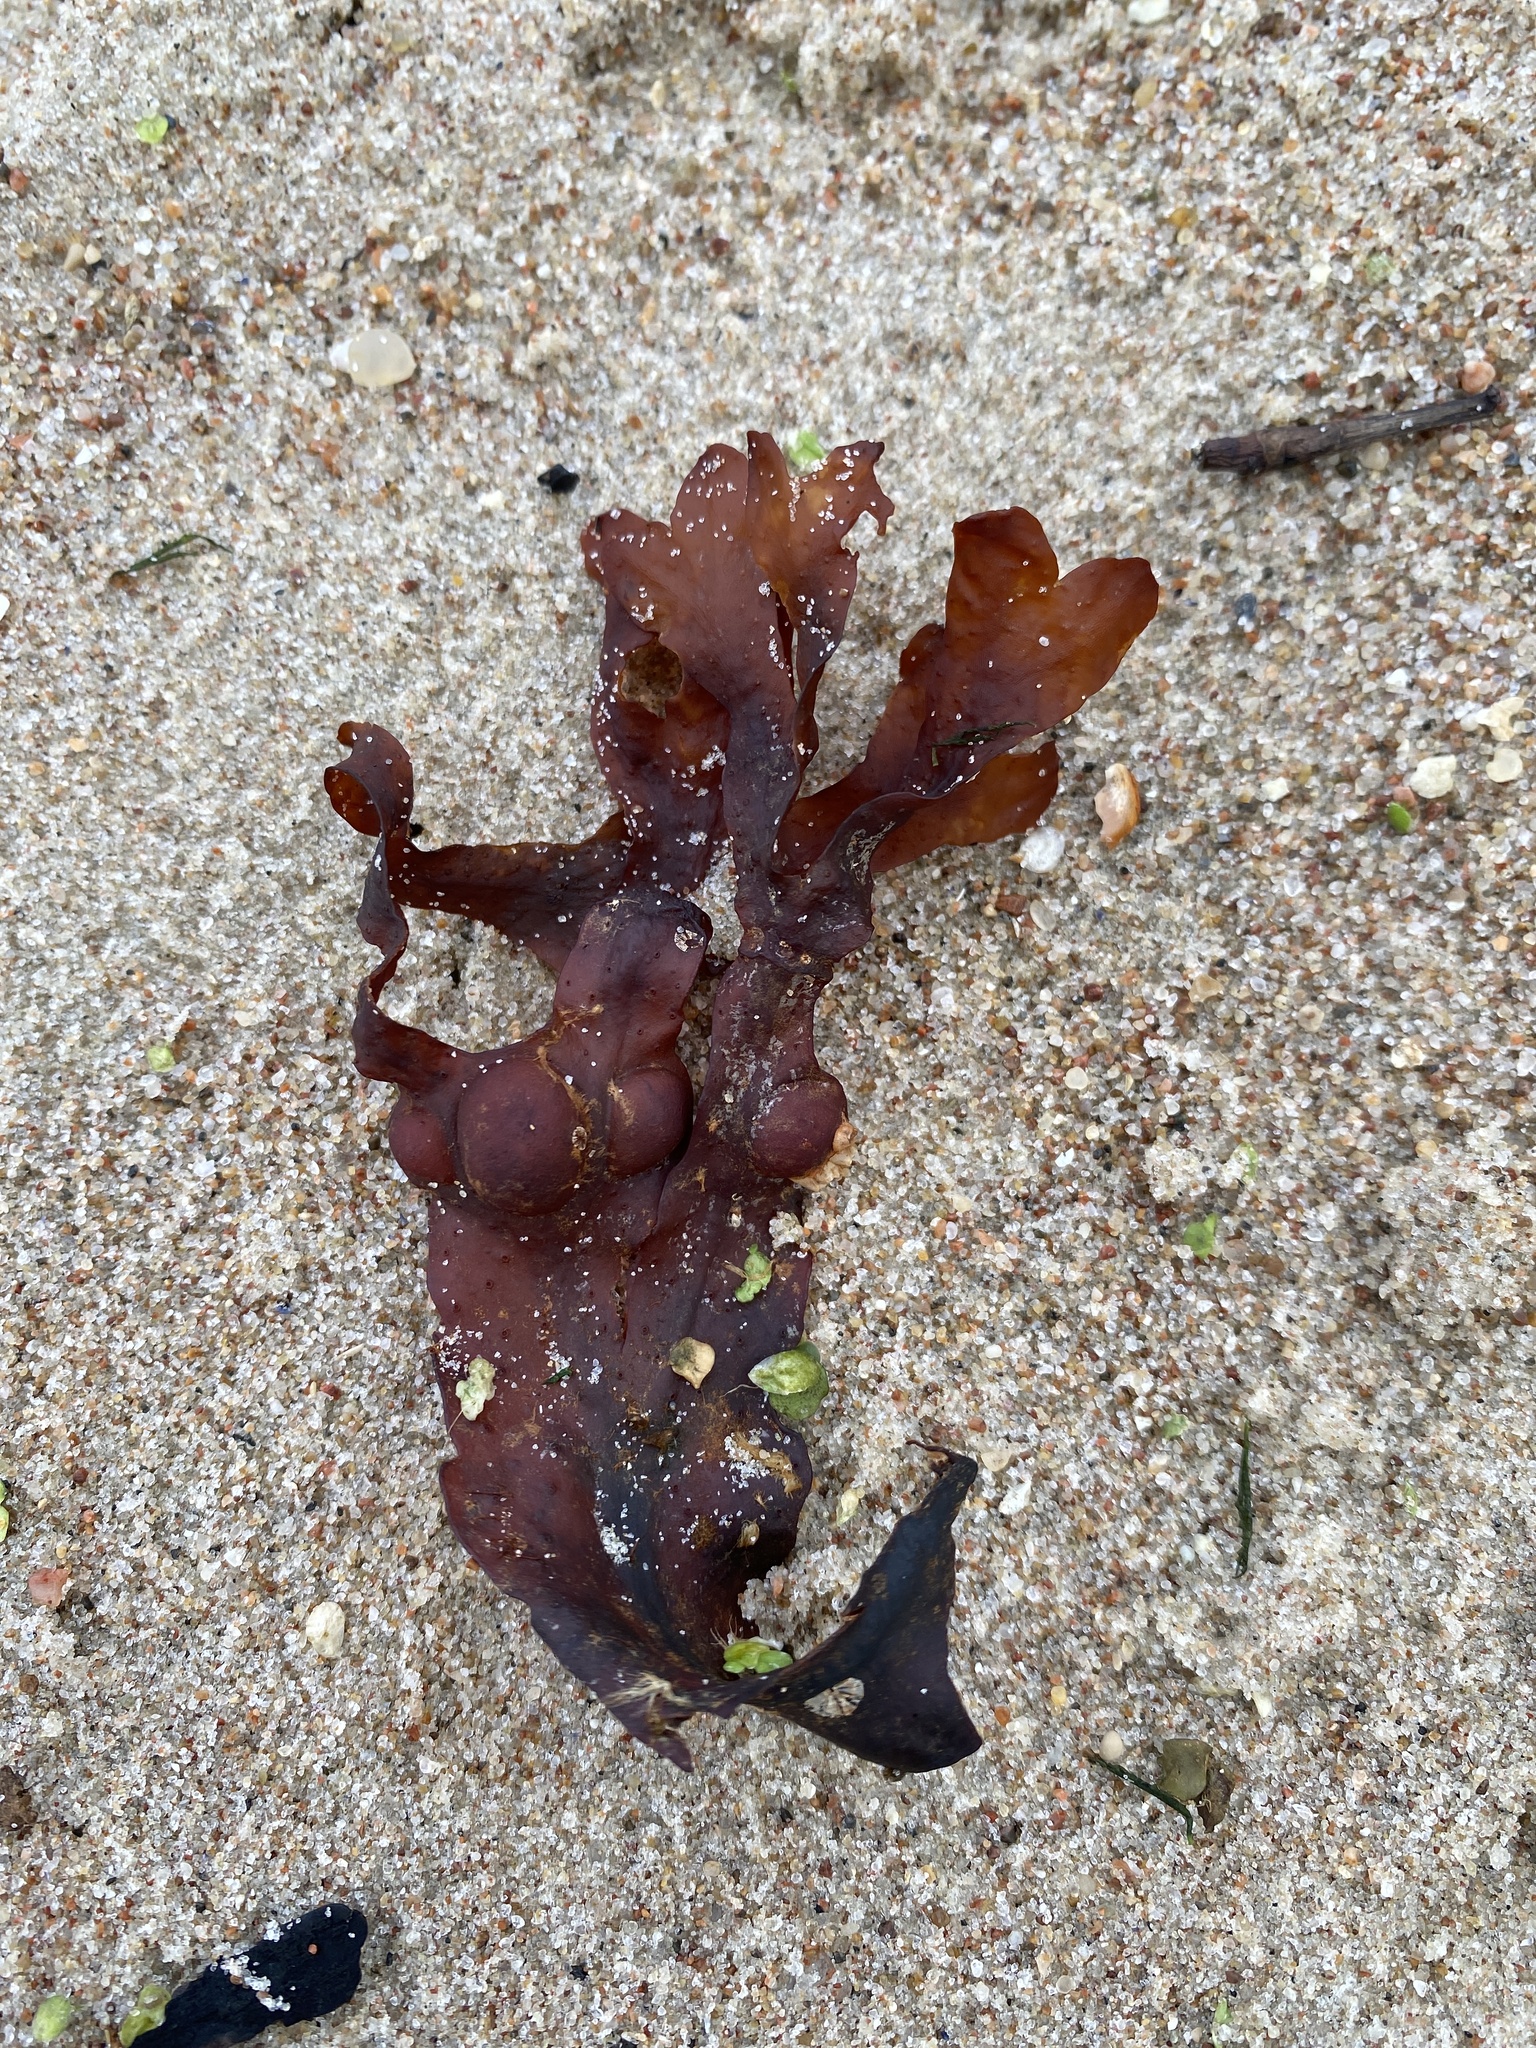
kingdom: Chromista
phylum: Ochrophyta
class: Phaeophyceae
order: Fucales
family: Fucaceae
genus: Fucus
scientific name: Fucus vesiculosus
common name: Bladder wrack
